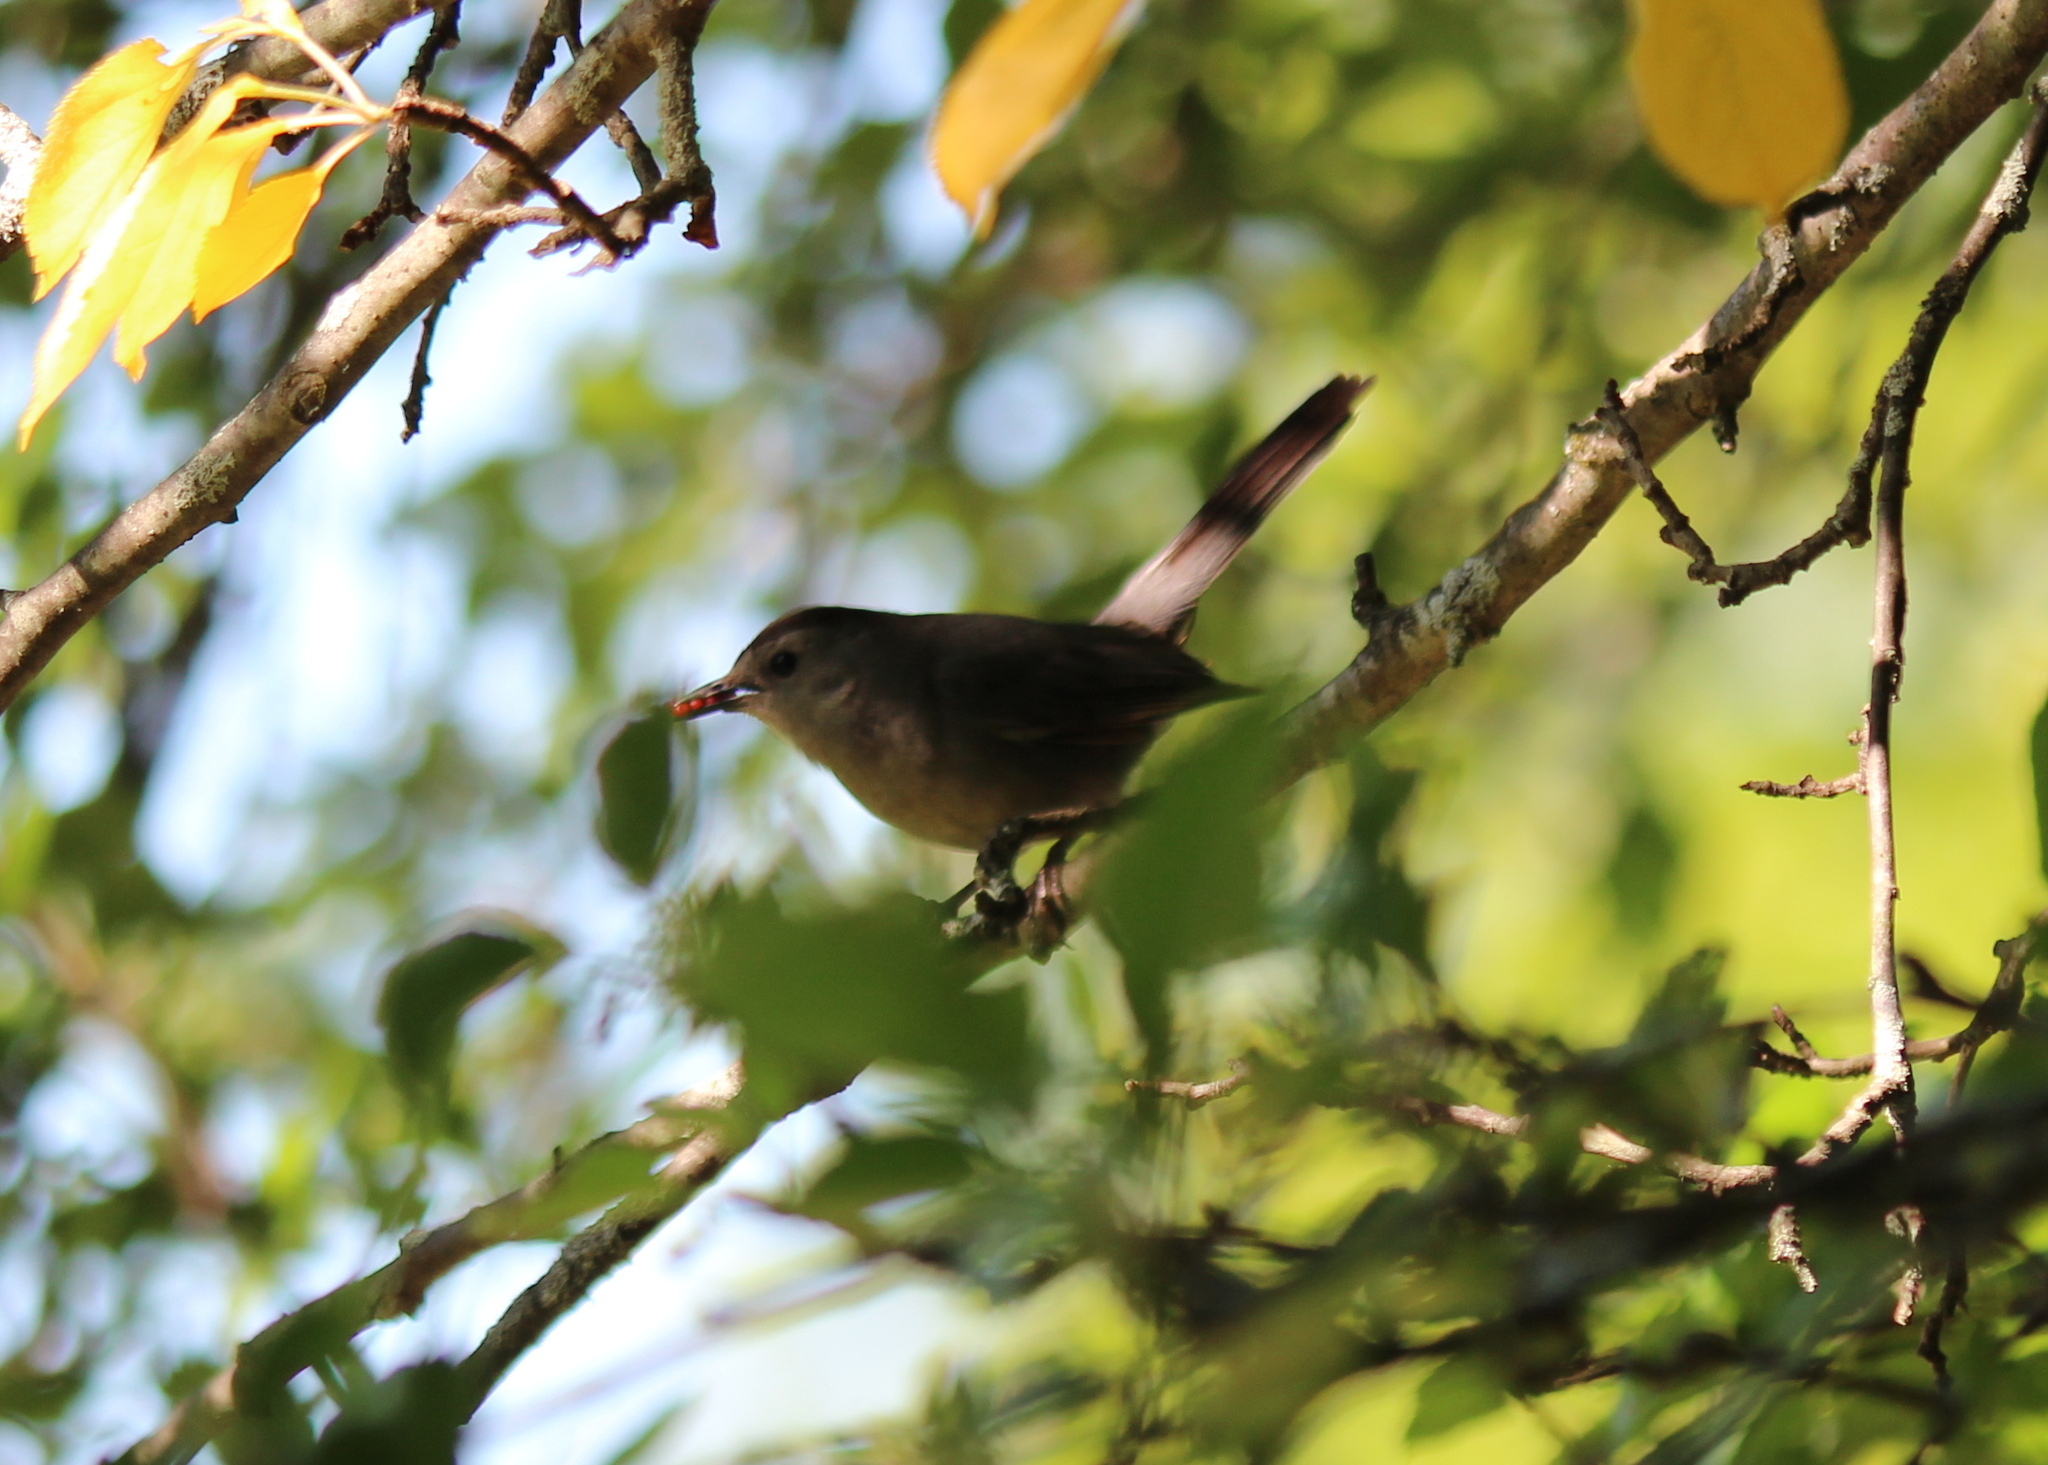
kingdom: Animalia
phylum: Chordata
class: Aves
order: Passeriformes
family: Mimidae
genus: Dumetella
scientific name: Dumetella carolinensis
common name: Gray catbird
